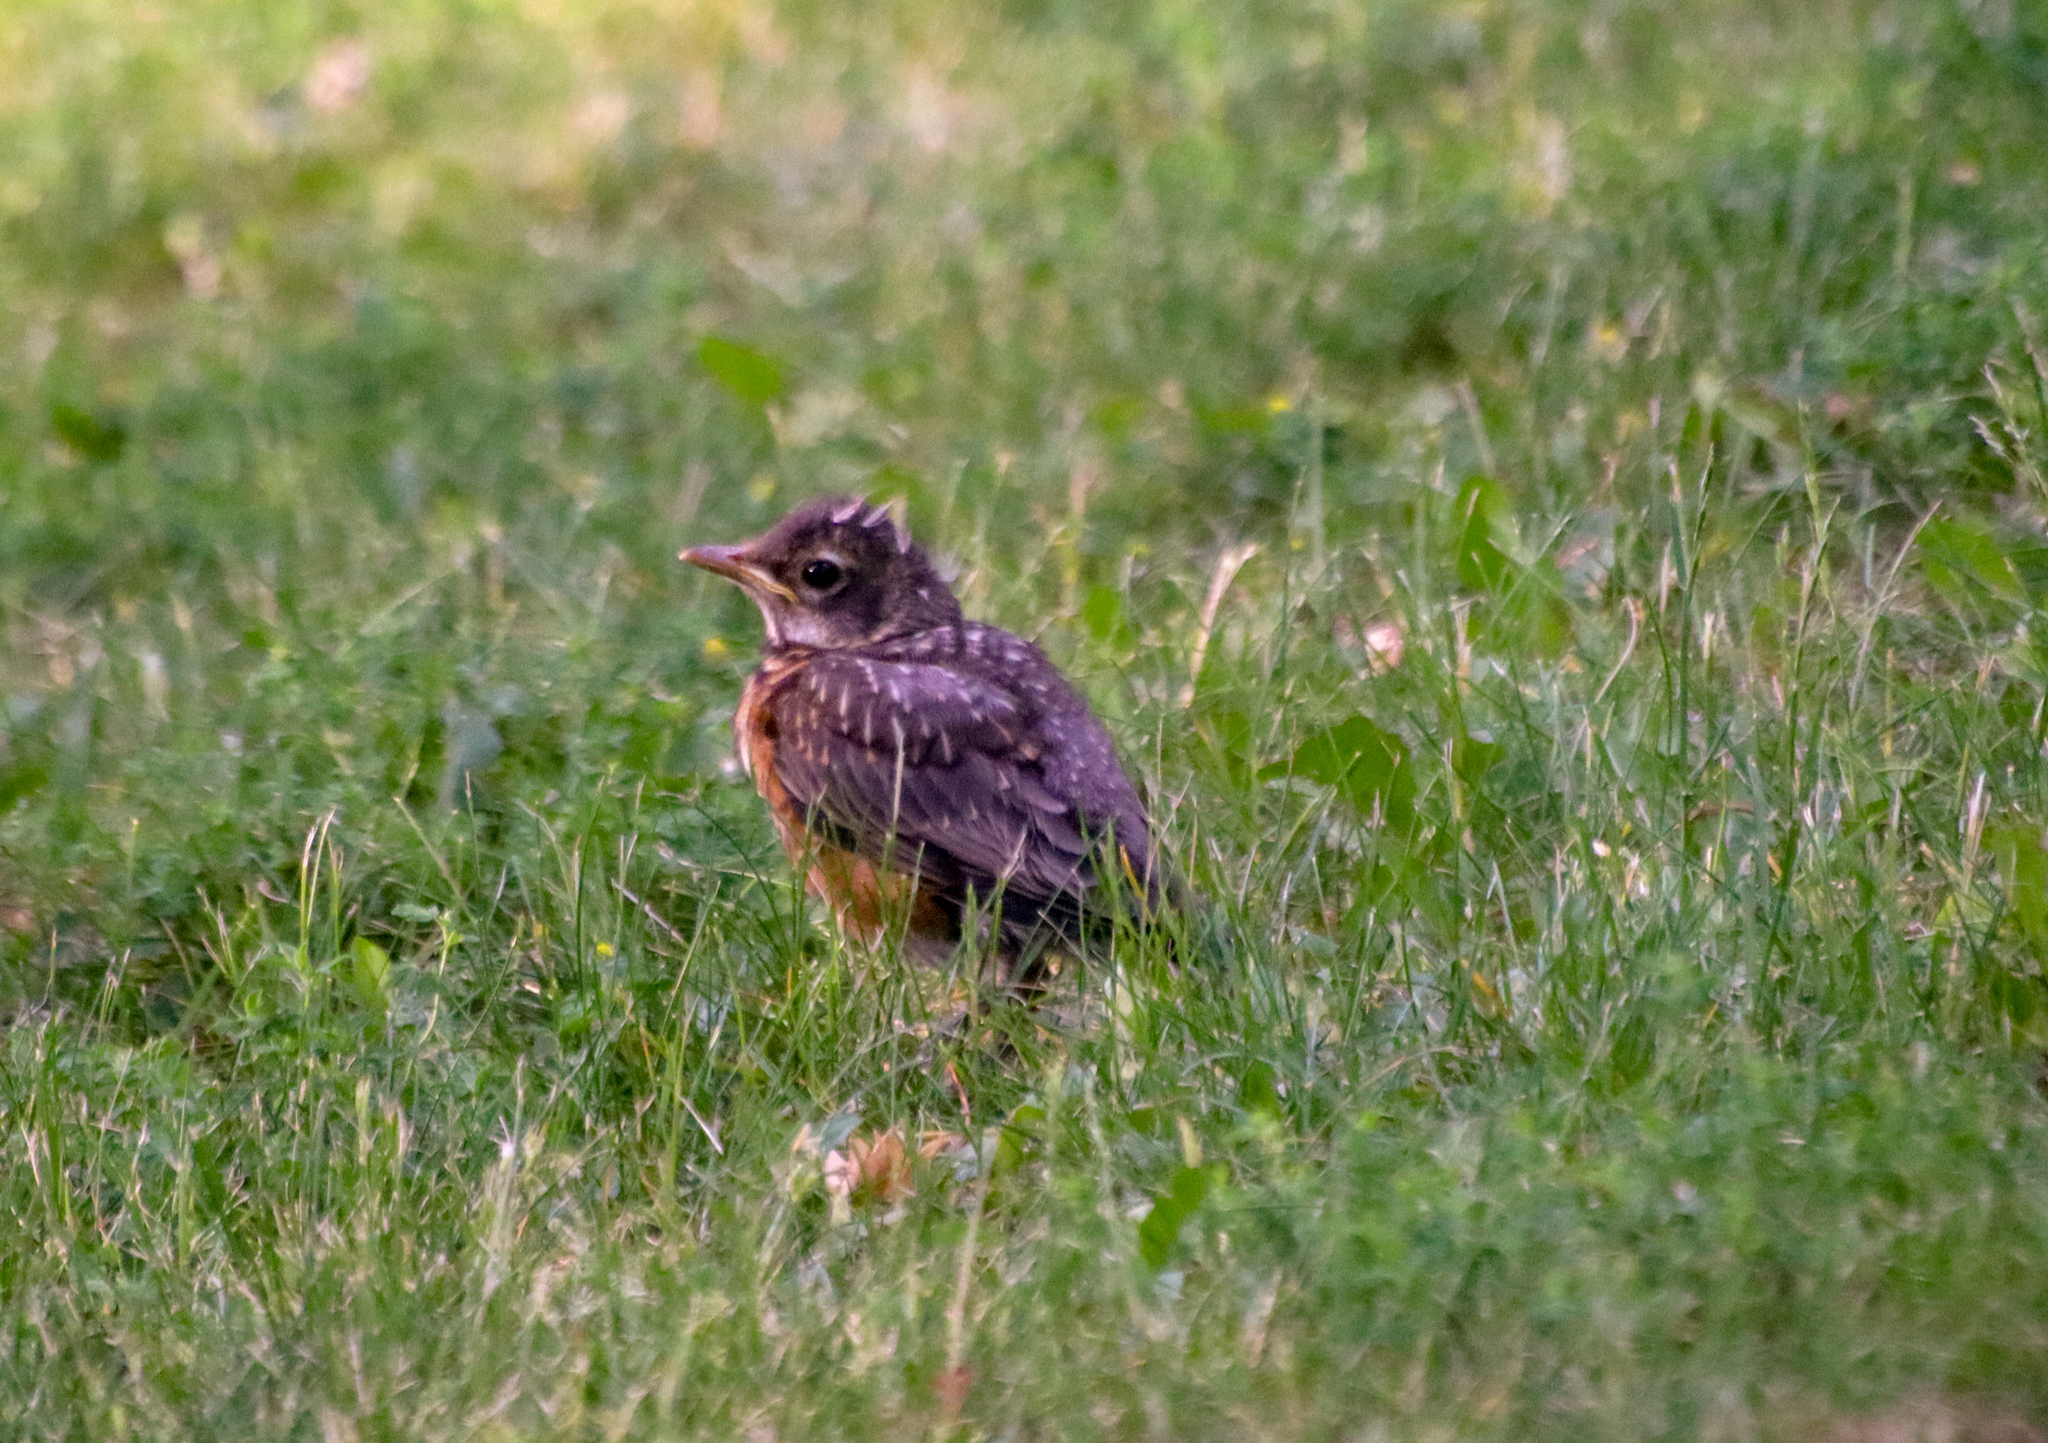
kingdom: Animalia
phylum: Chordata
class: Aves
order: Passeriformes
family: Turdidae
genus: Turdus
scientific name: Turdus migratorius
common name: American robin
